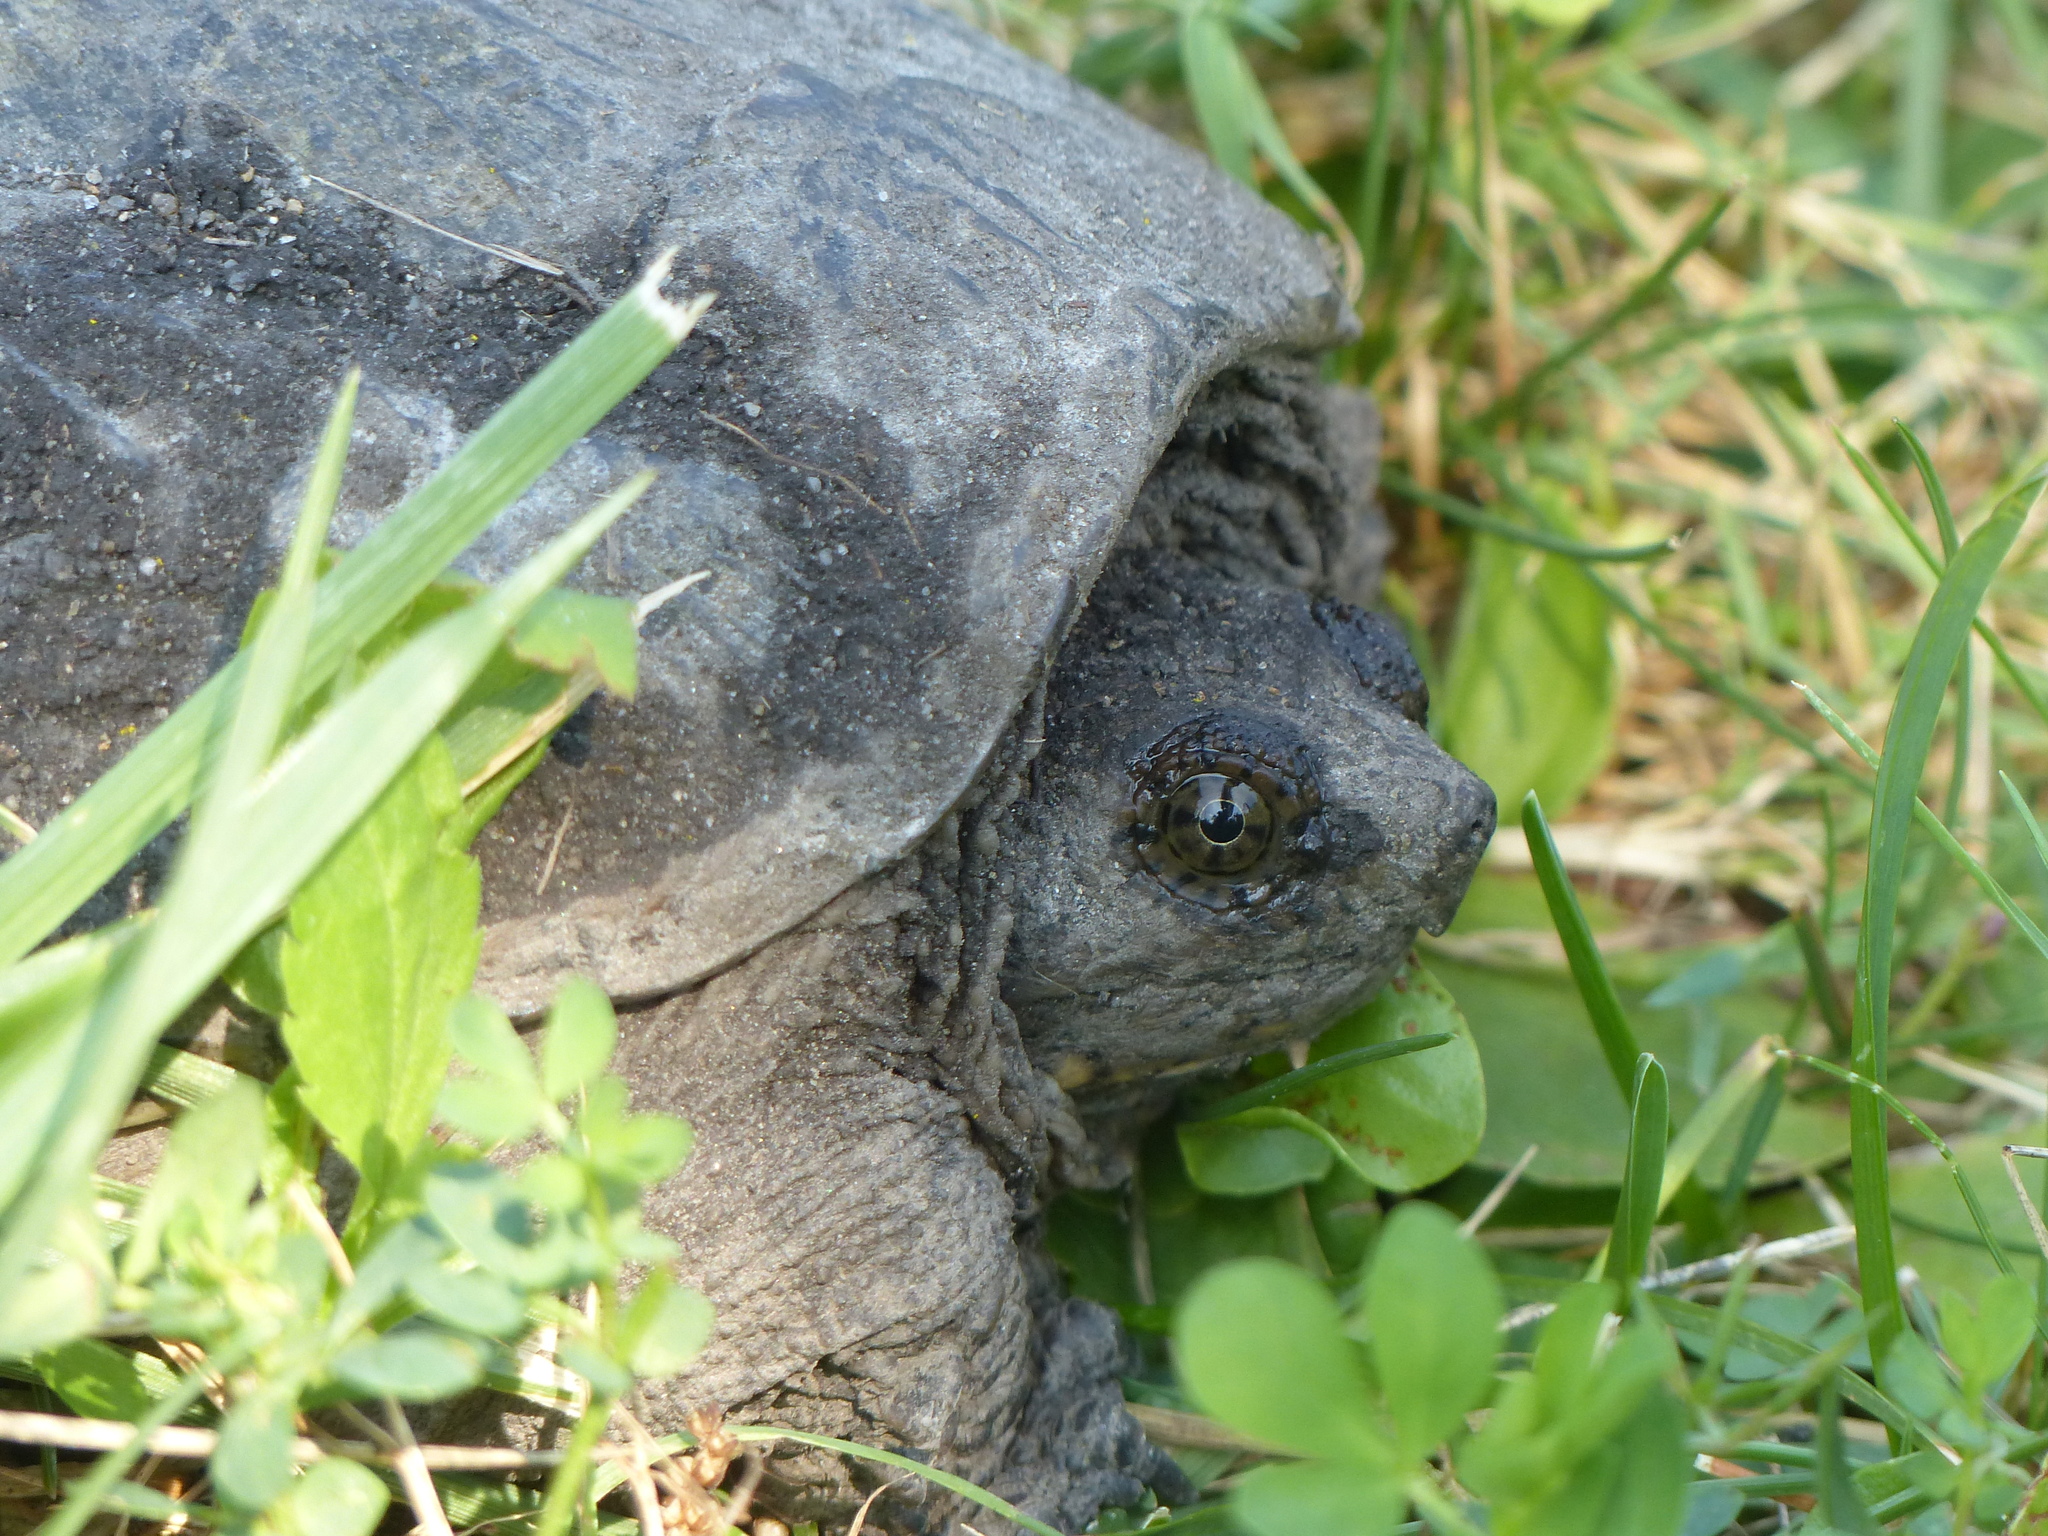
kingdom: Animalia
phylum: Chordata
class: Testudines
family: Chelydridae
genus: Chelydra
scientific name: Chelydra serpentina
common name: Common snapping turtle
